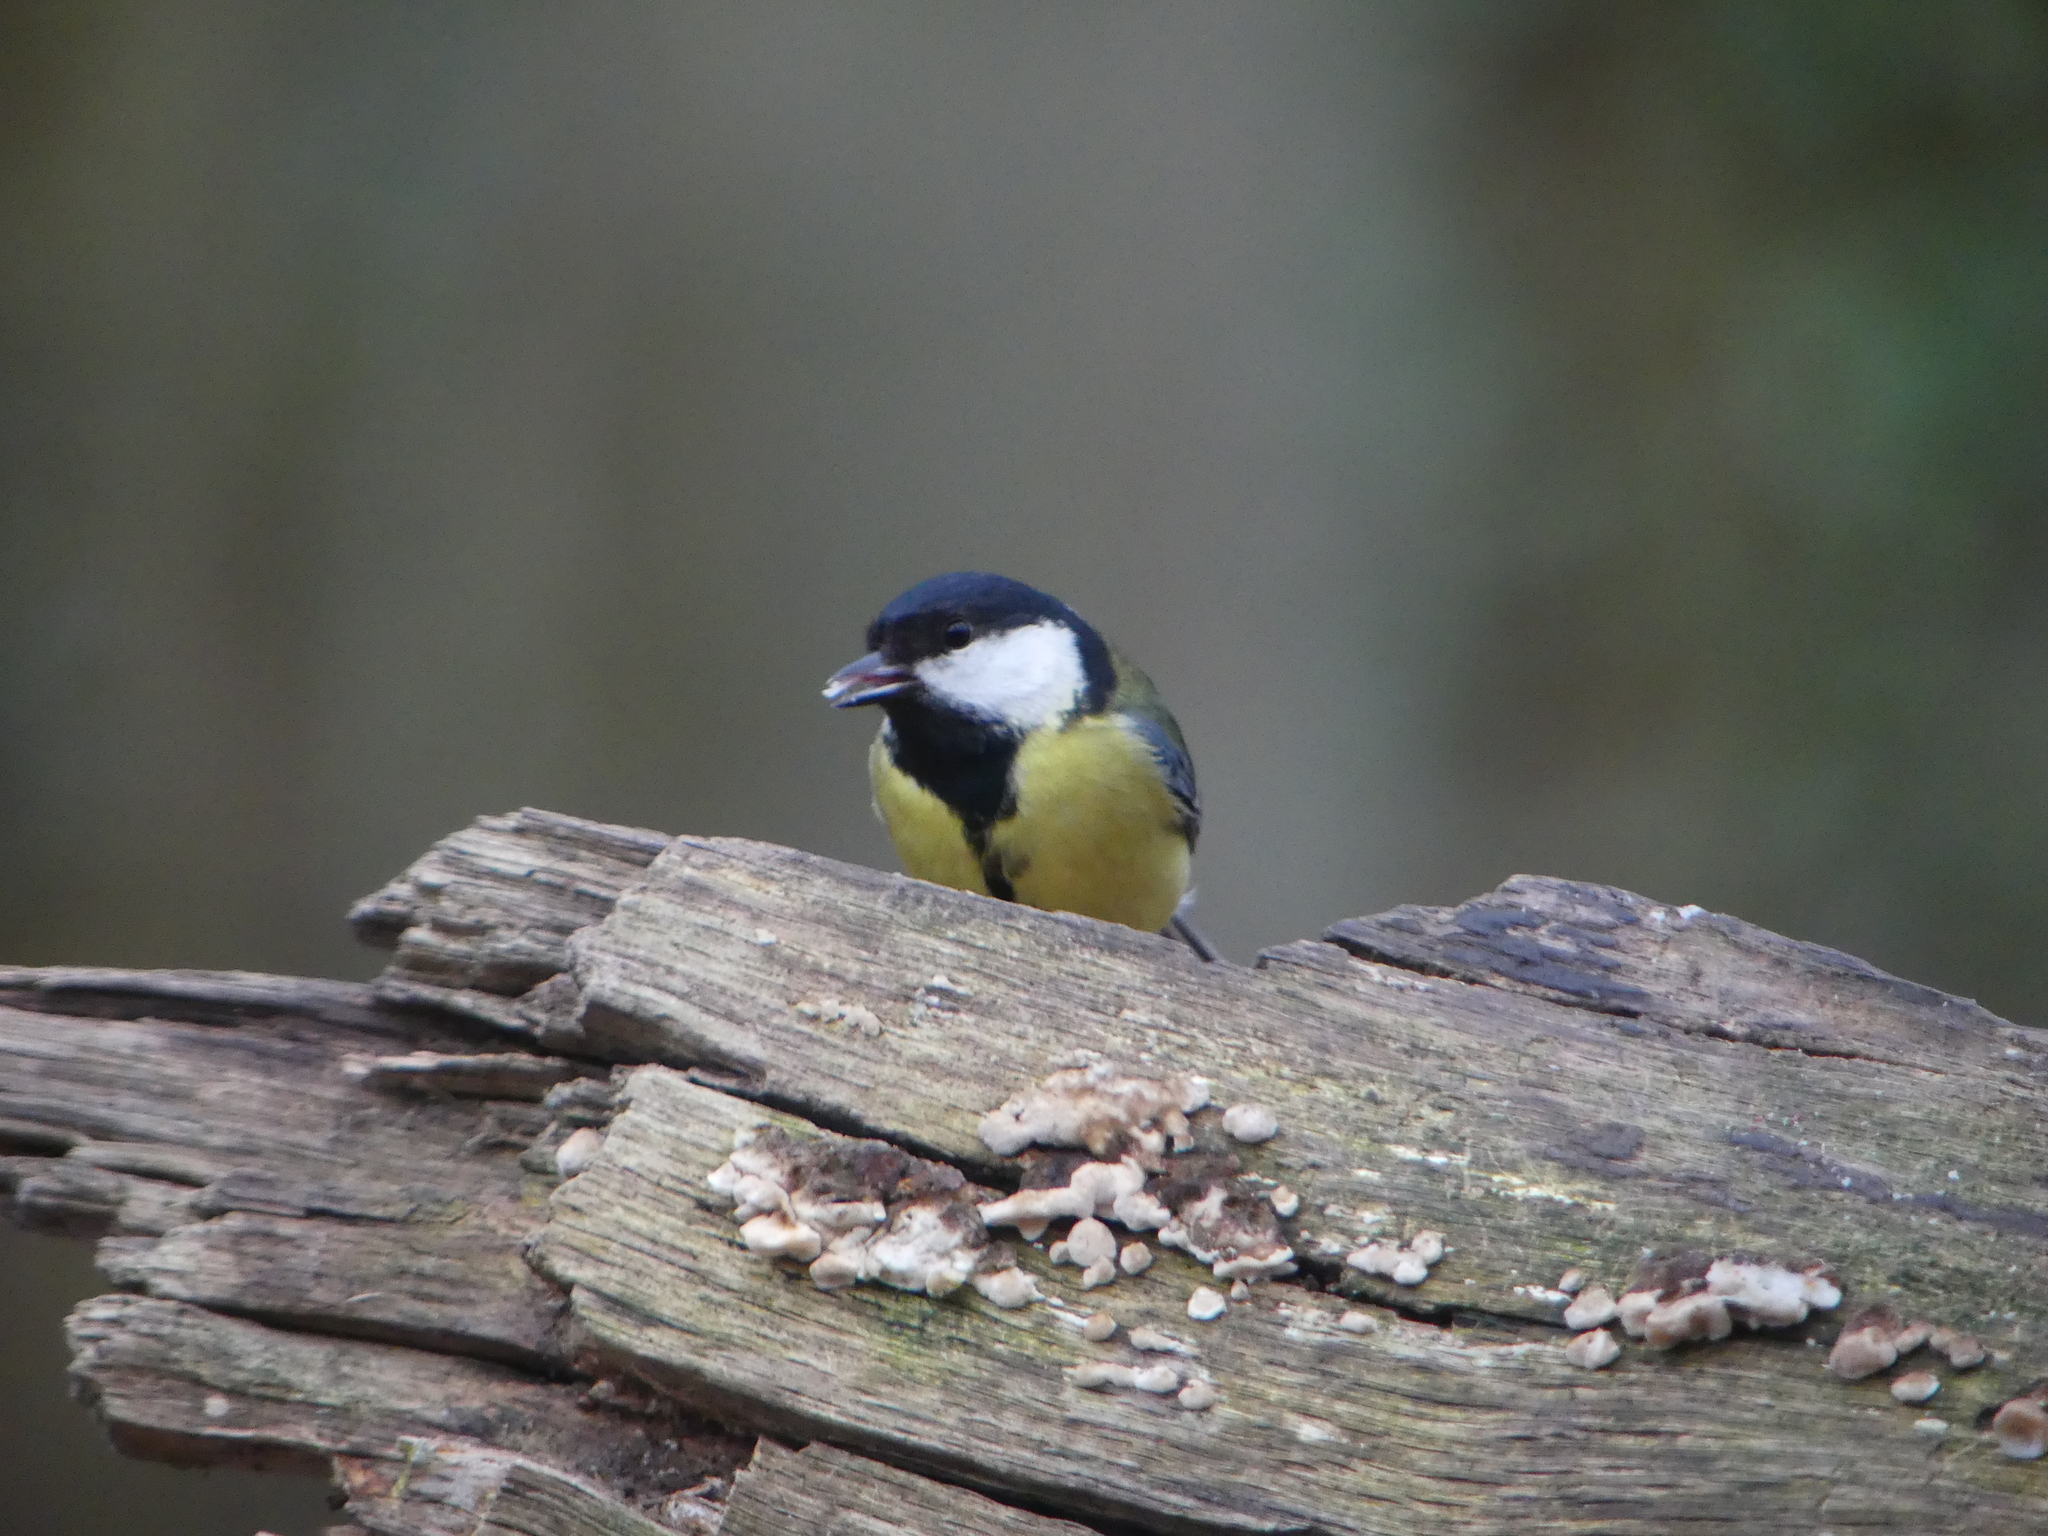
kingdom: Animalia
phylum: Chordata
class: Aves
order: Passeriformes
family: Paridae
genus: Parus
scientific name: Parus major
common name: Great tit
